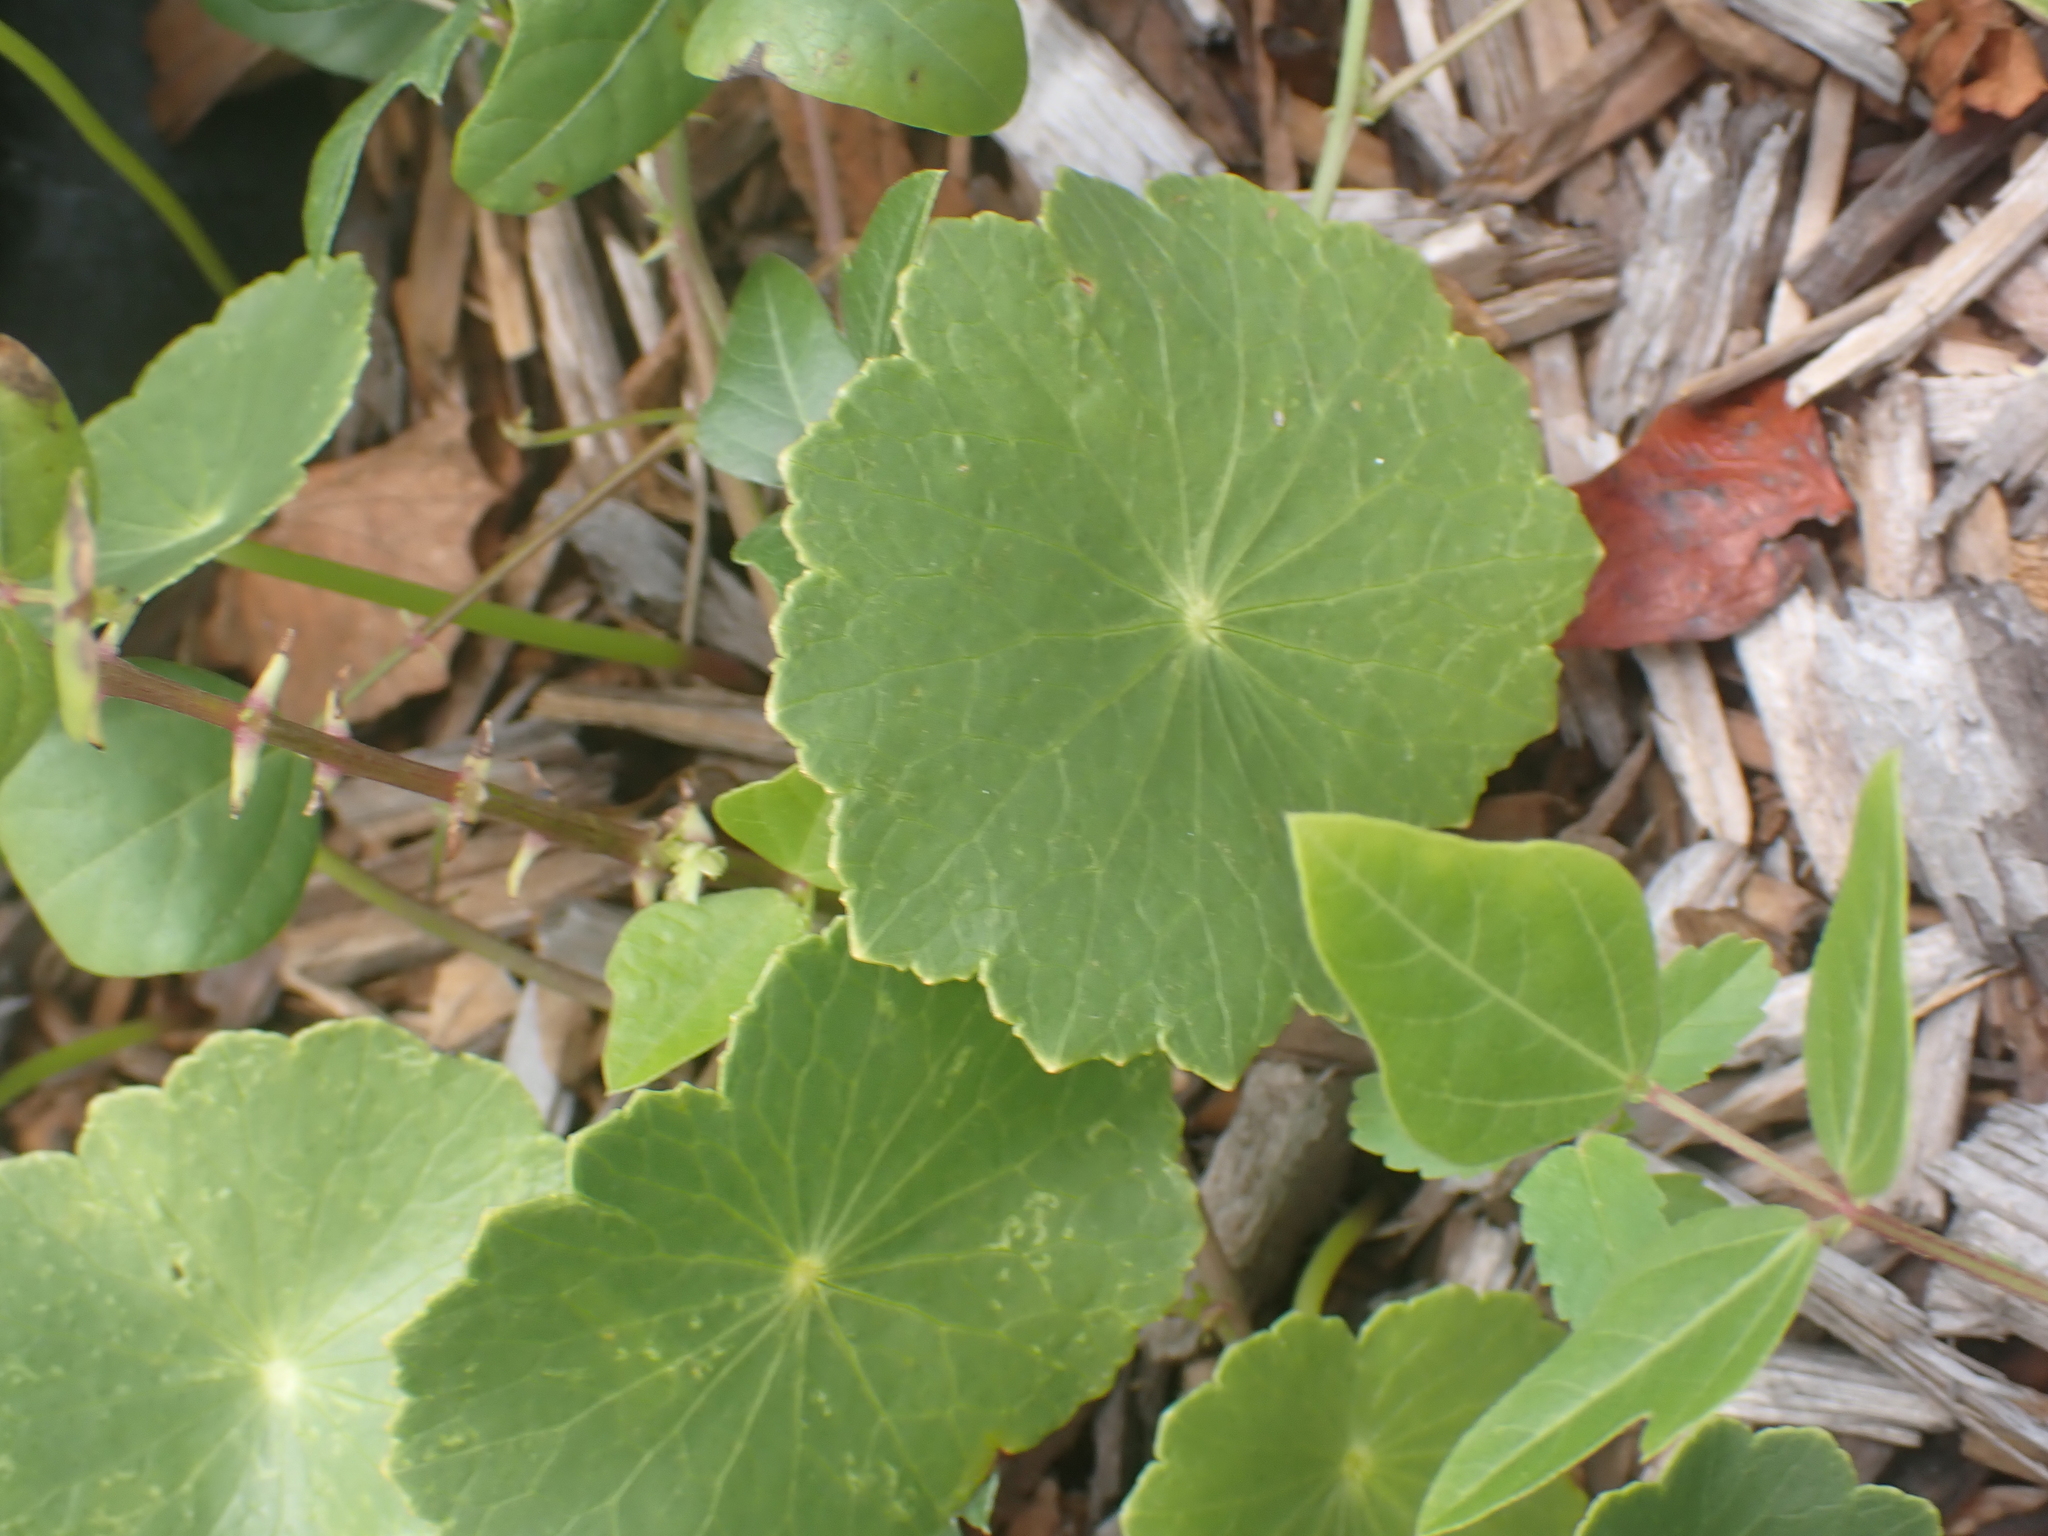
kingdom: Plantae
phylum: Tracheophyta
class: Magnoliopsida
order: Apiales
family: Araliaceae
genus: Hydrocotyle
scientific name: Hydrocotyle bonariensis
